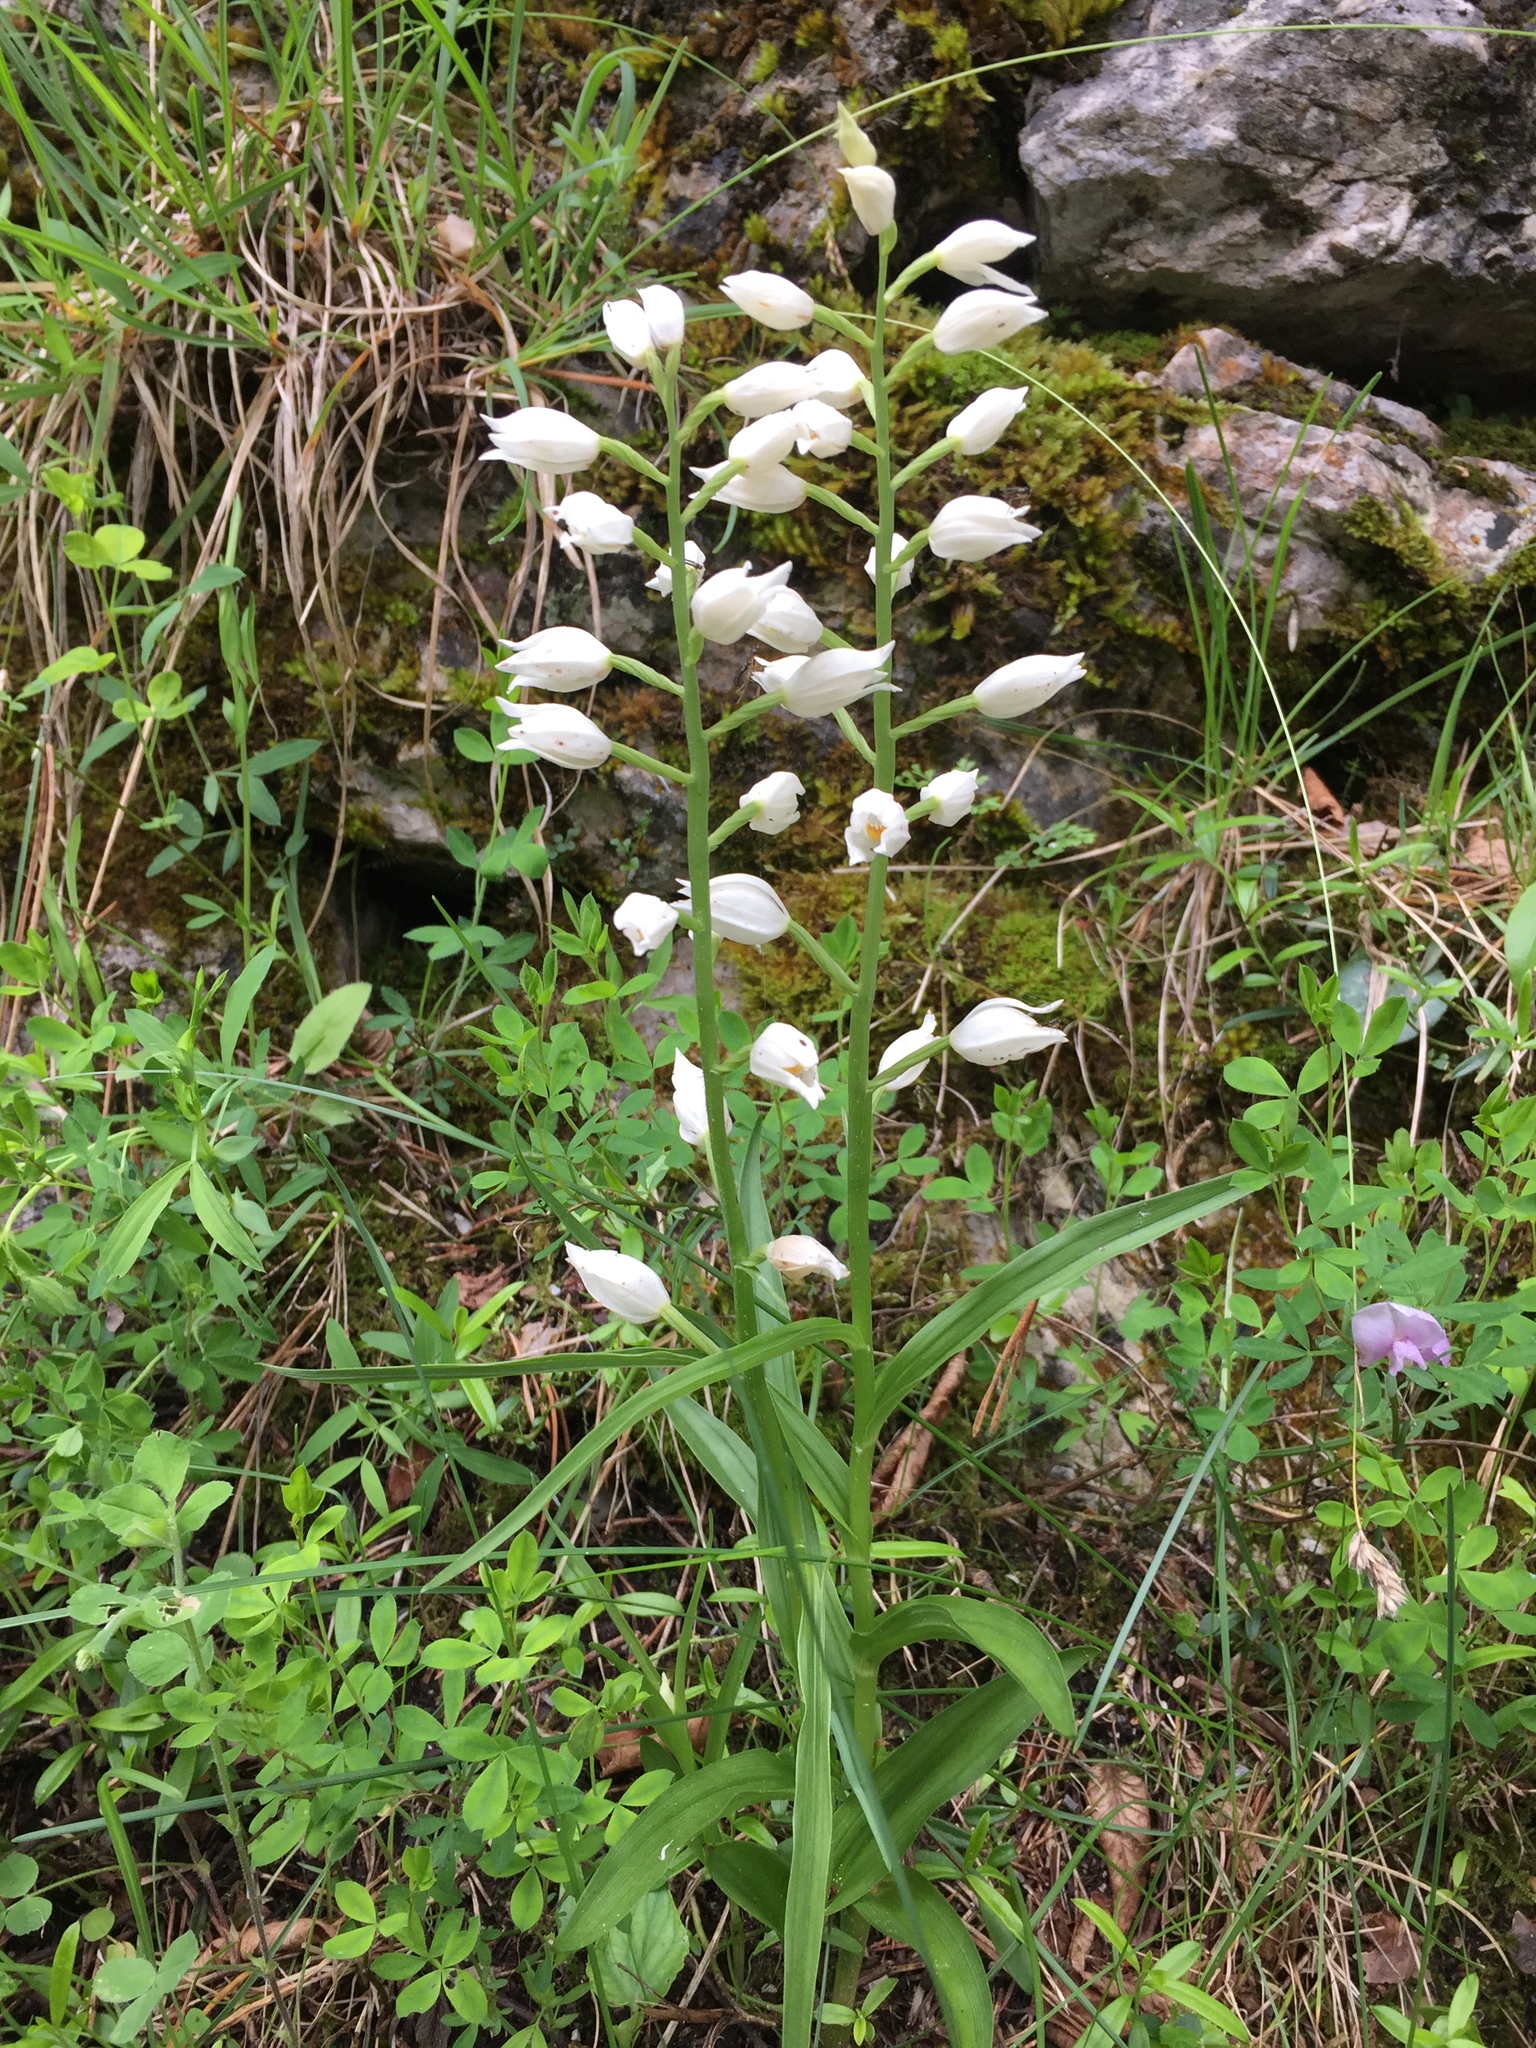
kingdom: Plantae
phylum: Tracheophyta
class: Liliopsida
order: Asparagales
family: Orchidaceae
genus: Cephalanthera
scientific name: Cephalanthera longifolia
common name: Narrow-leaved helleborine
